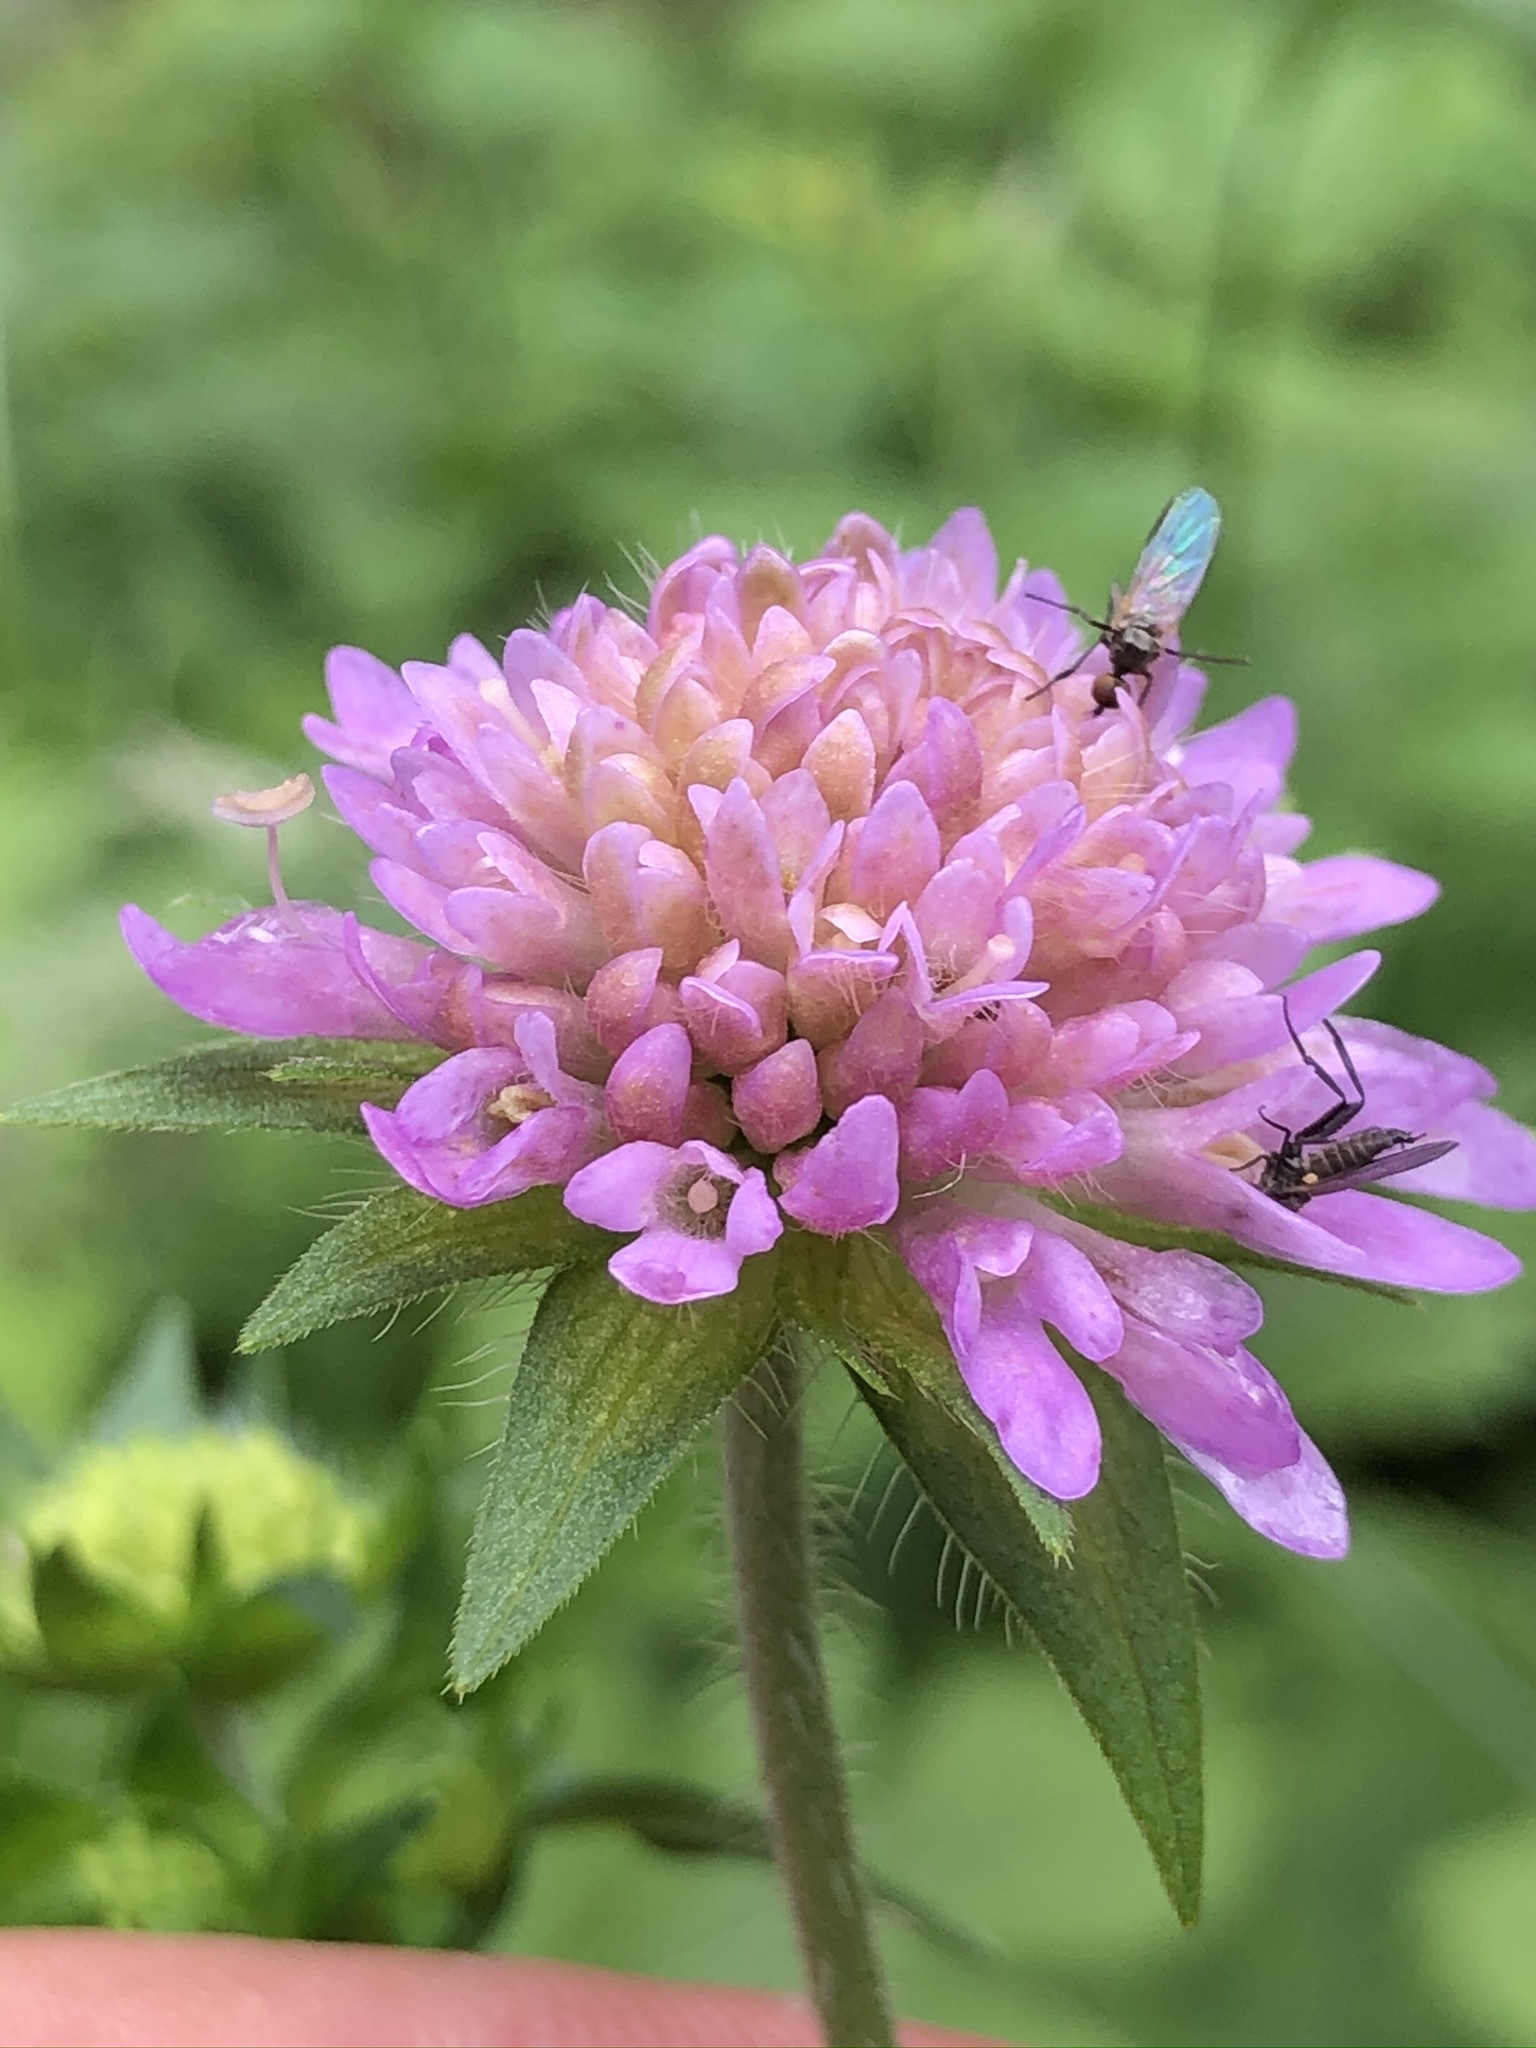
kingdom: Plantae
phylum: Tracheophyta
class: Magnoliopsida
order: Dipsacales
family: Caprifoliaceae
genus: Knautia
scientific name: Knautia dipsacifolia
